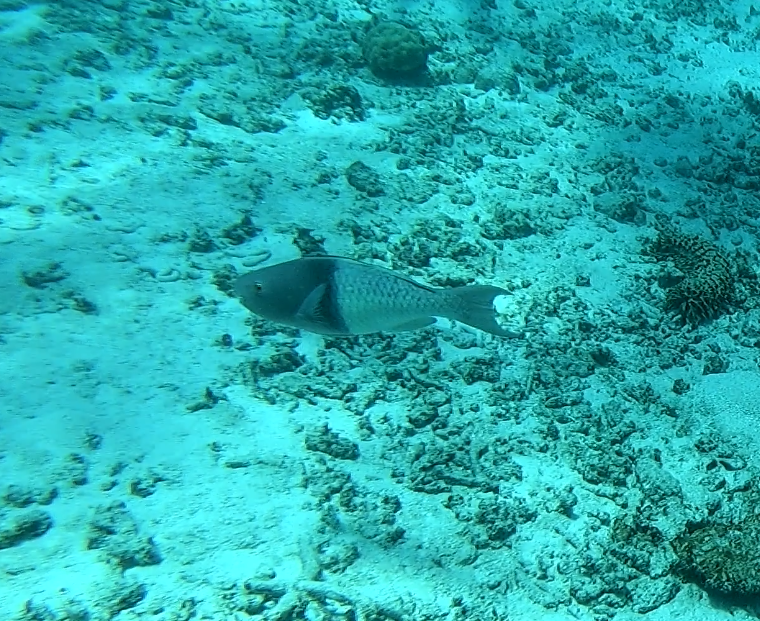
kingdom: Animalia
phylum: Chordata
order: Perciformes
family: Scaridae
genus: Scarus
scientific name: Scarus rubroviolaceus
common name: Ember parrotfish
